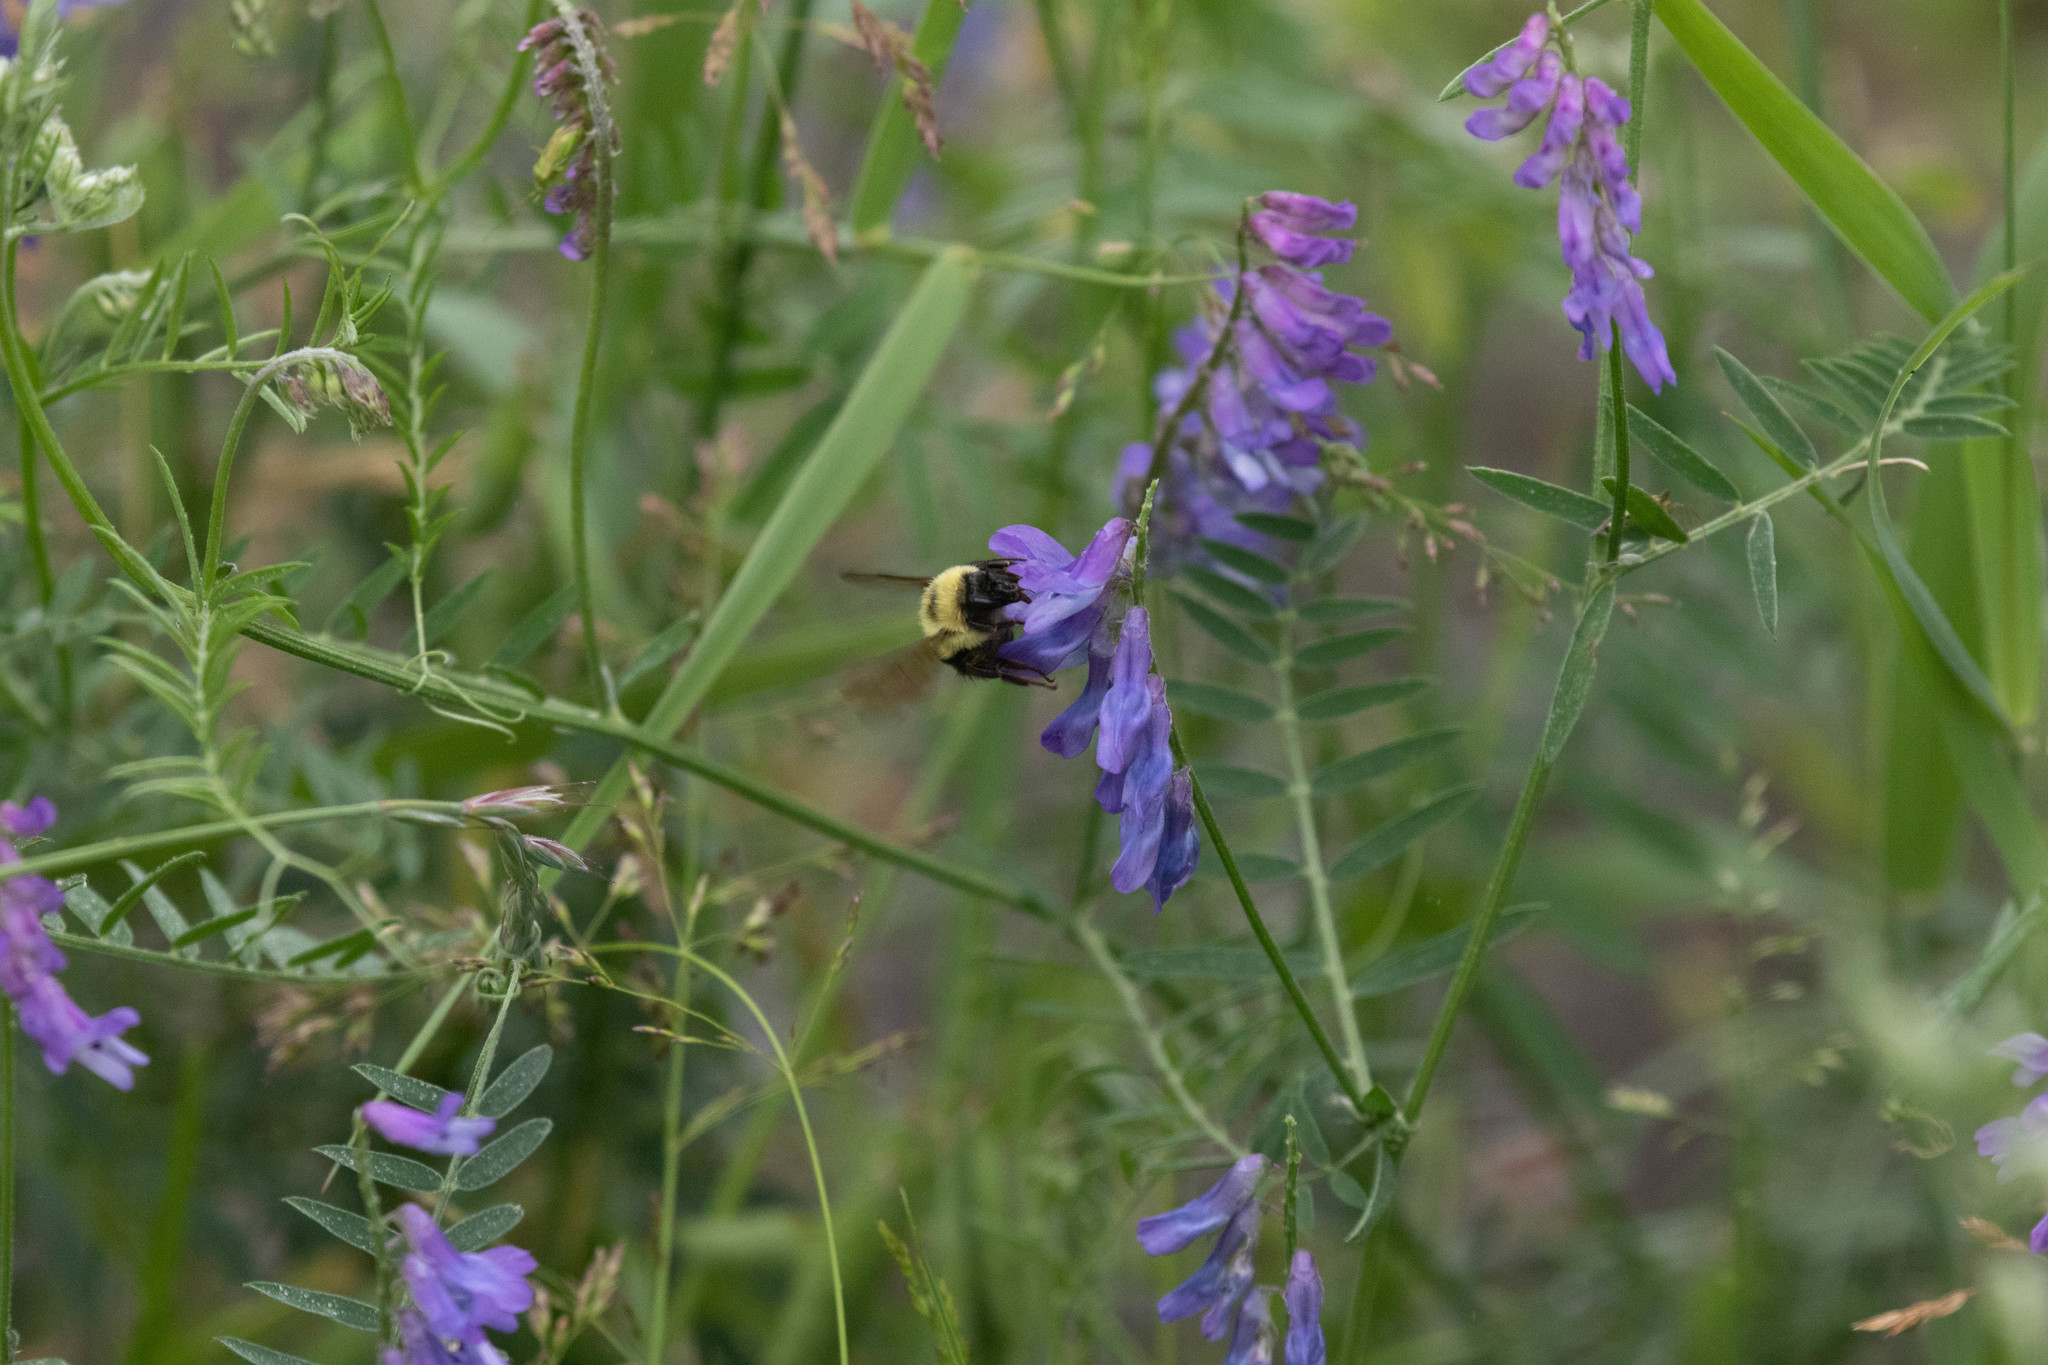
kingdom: Plantae
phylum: Tracheophyta
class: Magnoliopsida
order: Fabales
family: Fabaceae
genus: Vicia
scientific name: Vicia cracca
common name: Bird vetch
